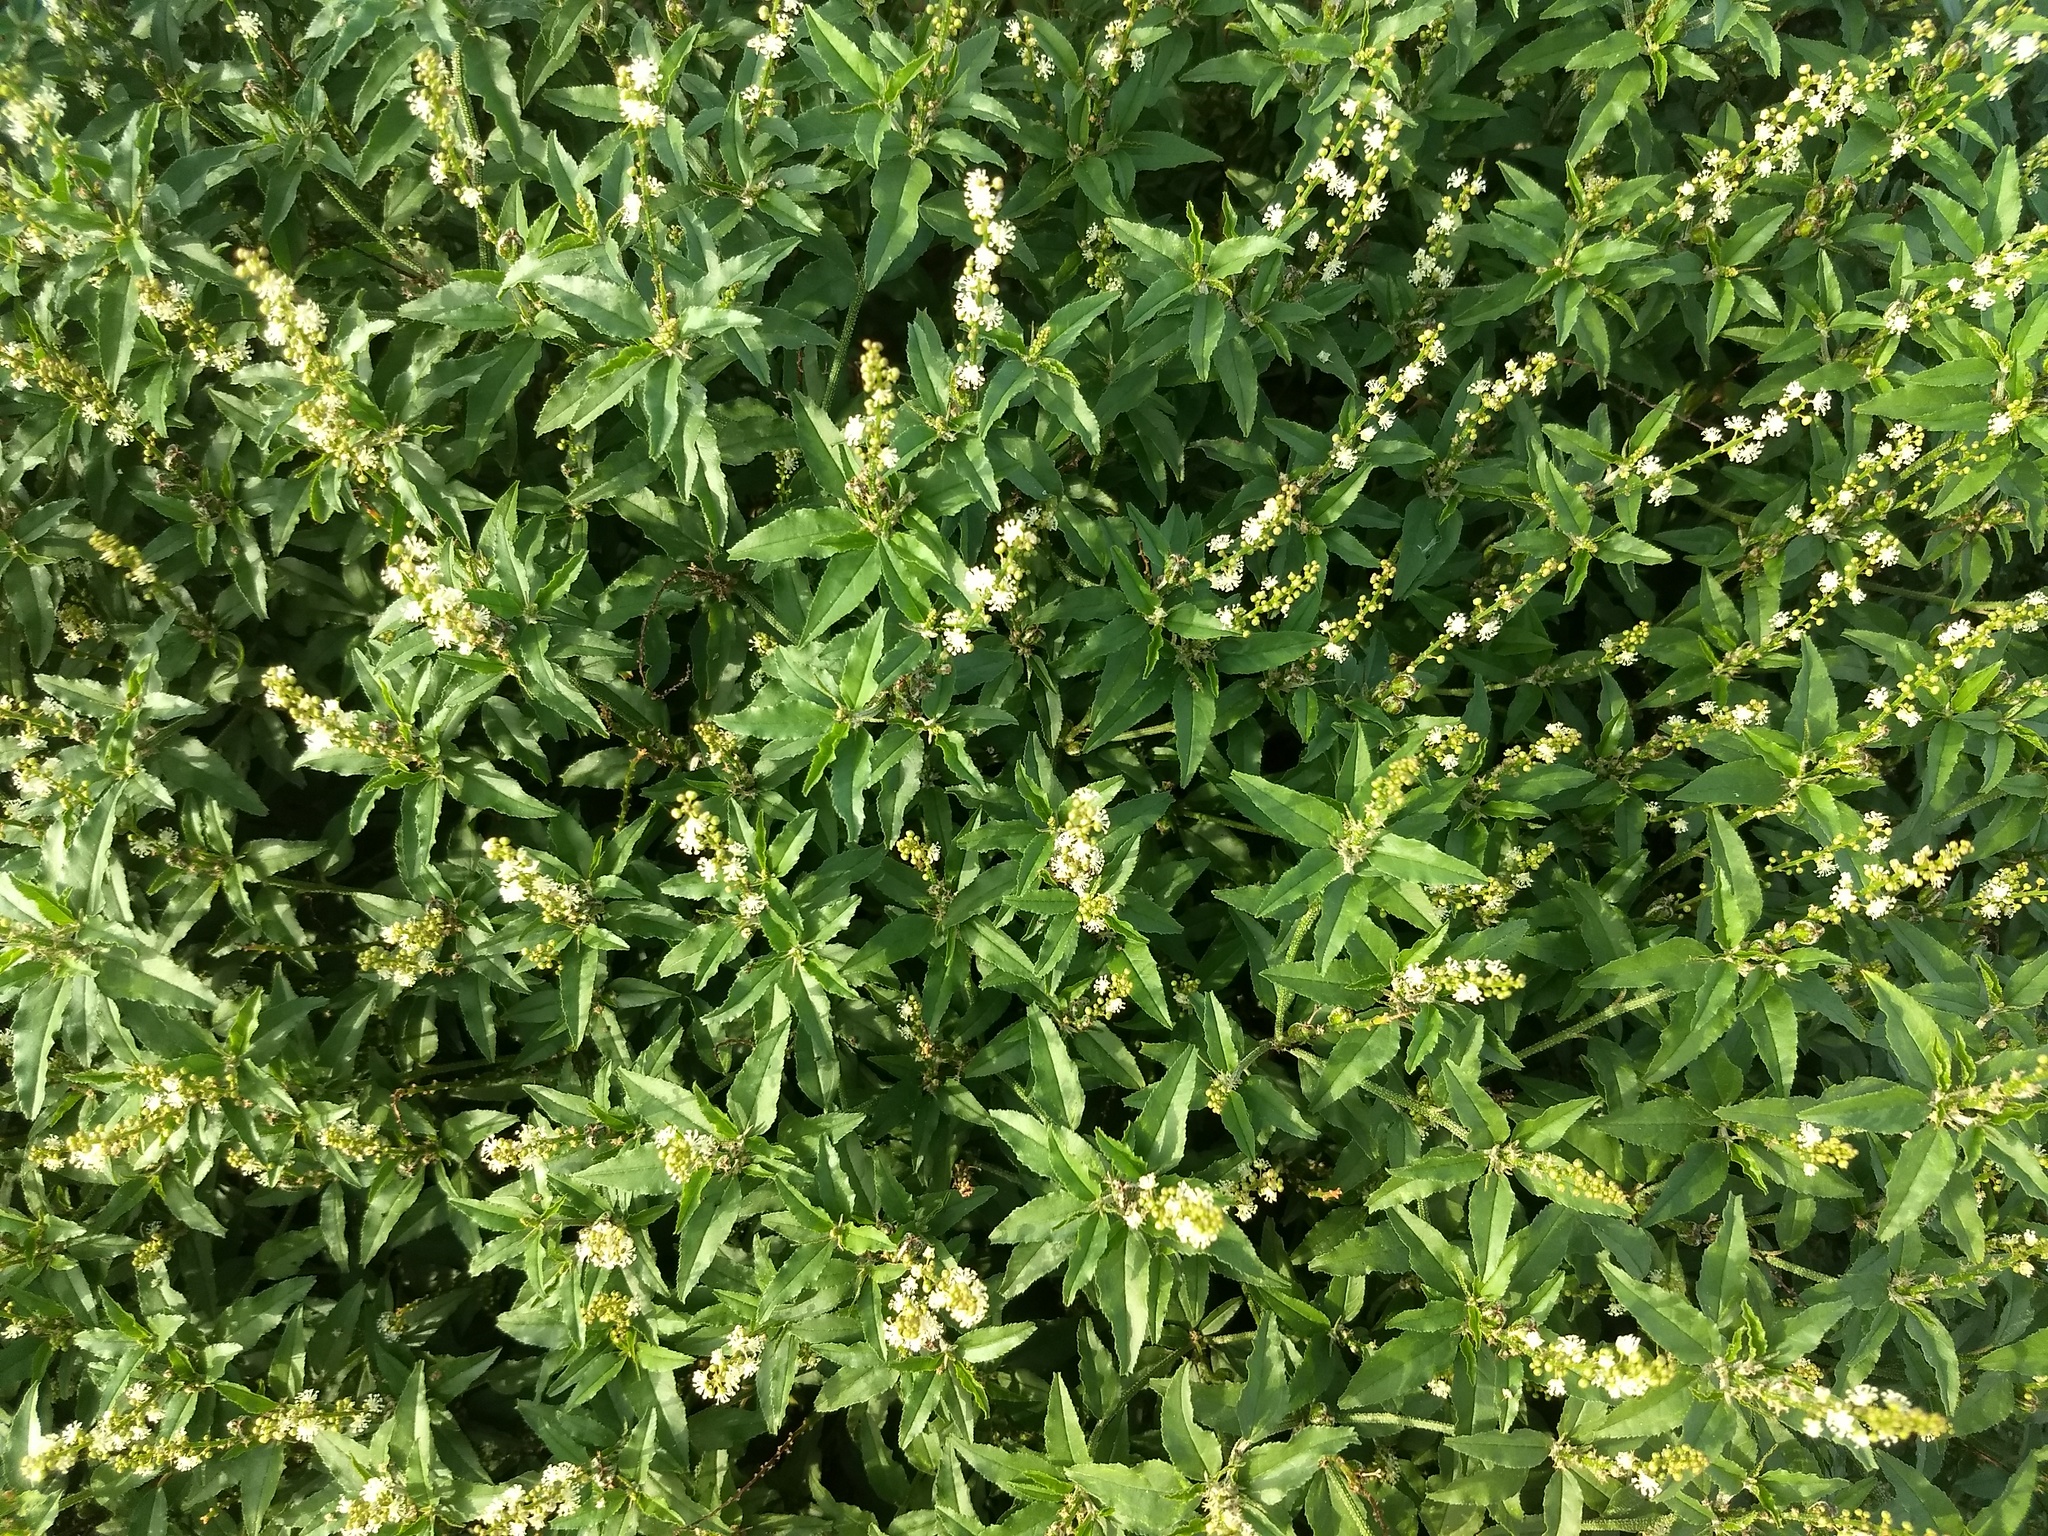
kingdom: Plantae
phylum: Tracheophyta
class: Magnoliopsida
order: Malpighiales
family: Euphorbiaceae
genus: Croton
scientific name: Croton bonplandianus
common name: Bonpland's croton
